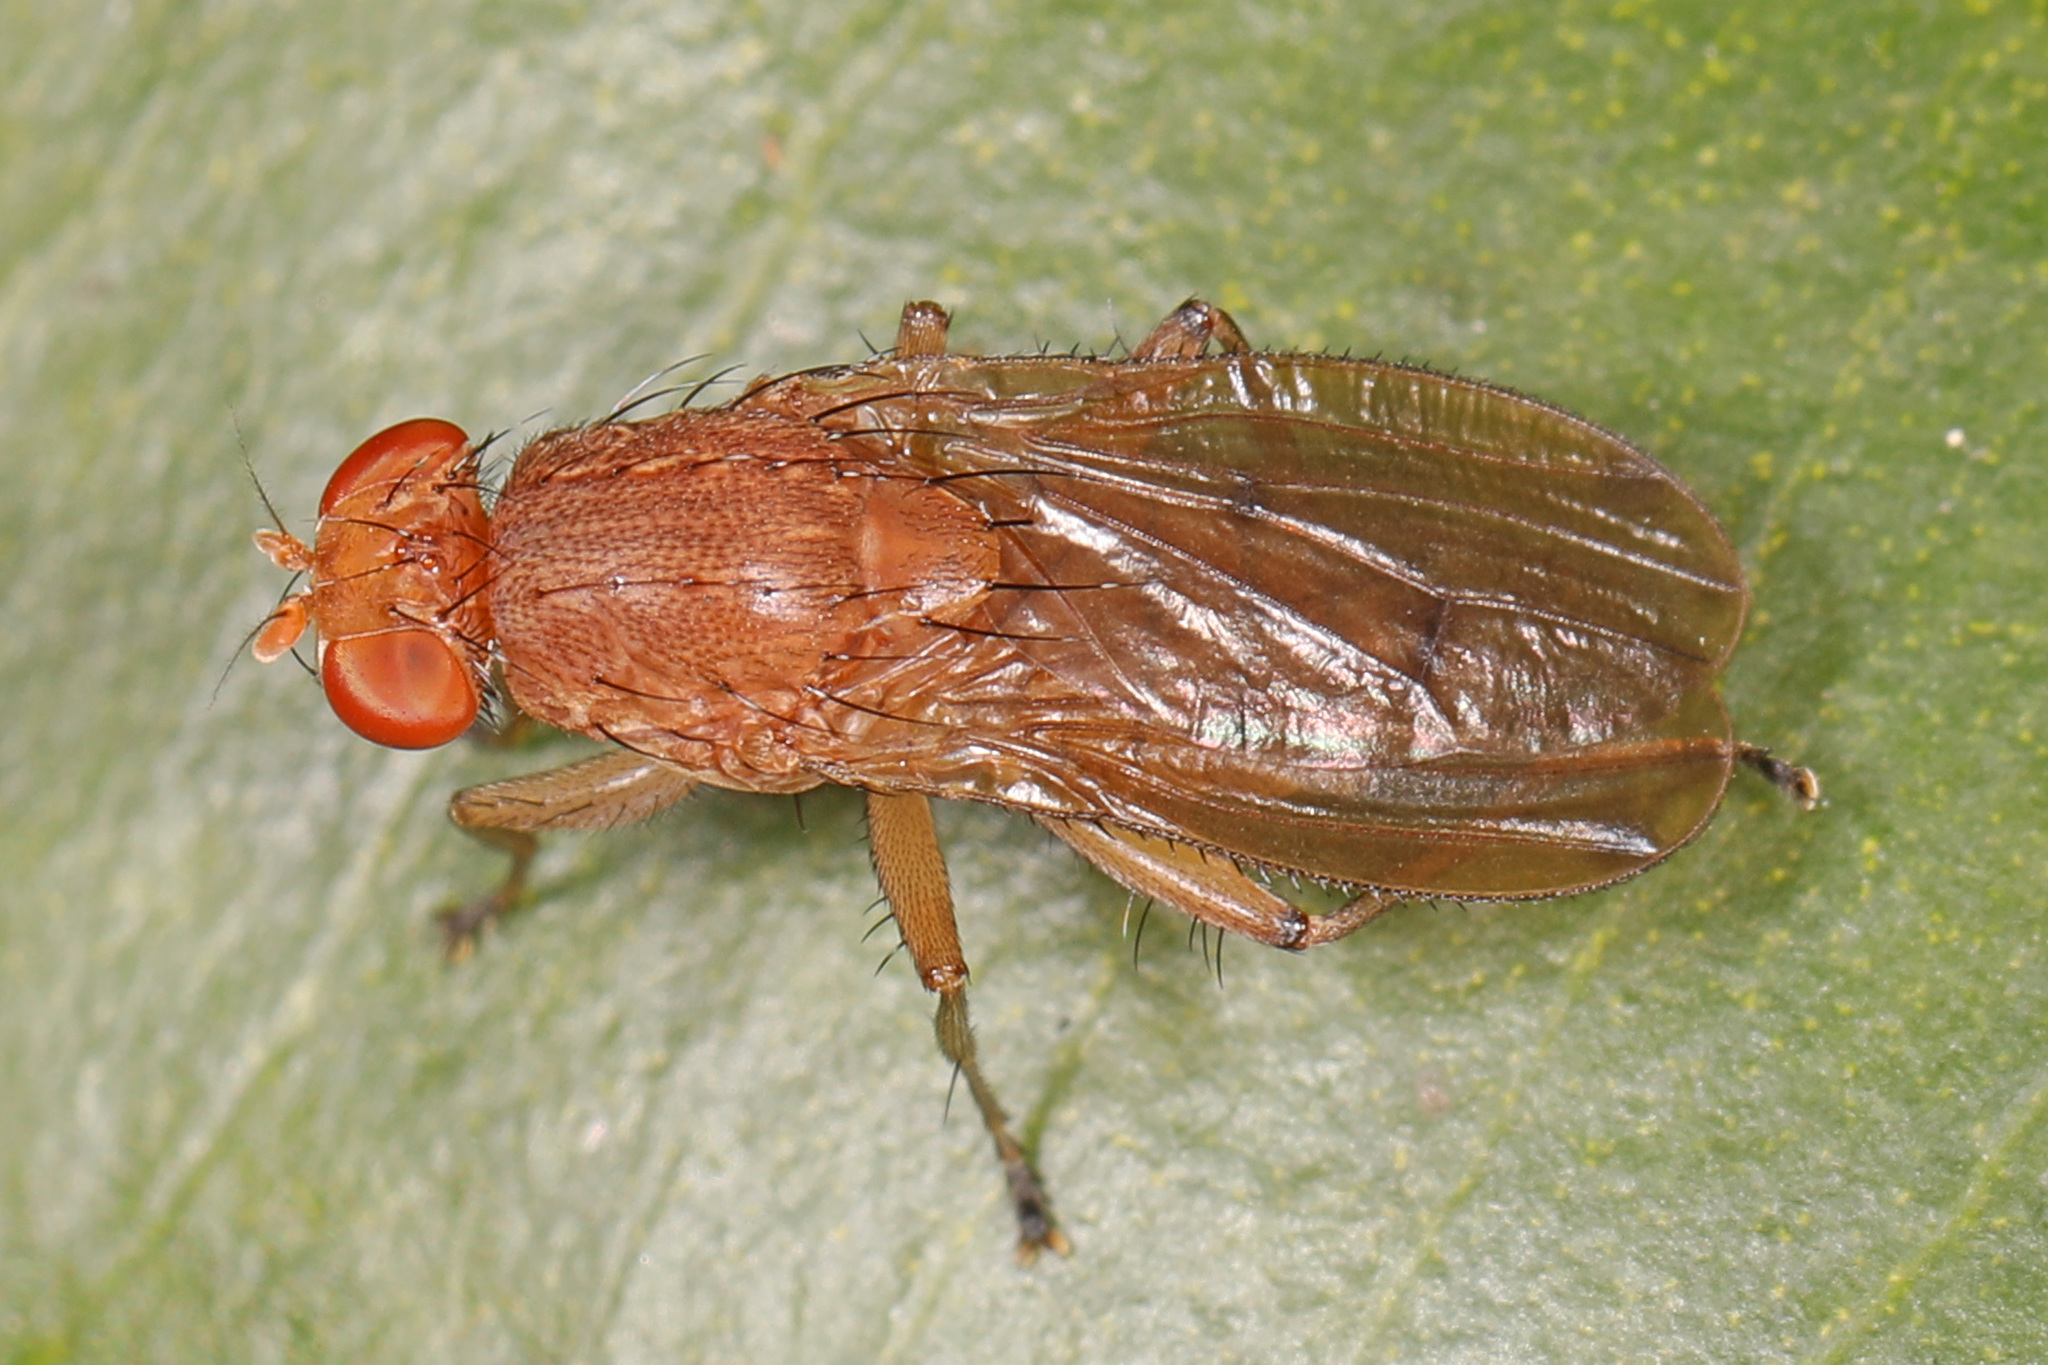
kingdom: Animalia
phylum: Arthropoda
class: Insecta
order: Diptera
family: Heleomyzidae
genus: Suillia
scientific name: Suillia quinquepunctata
